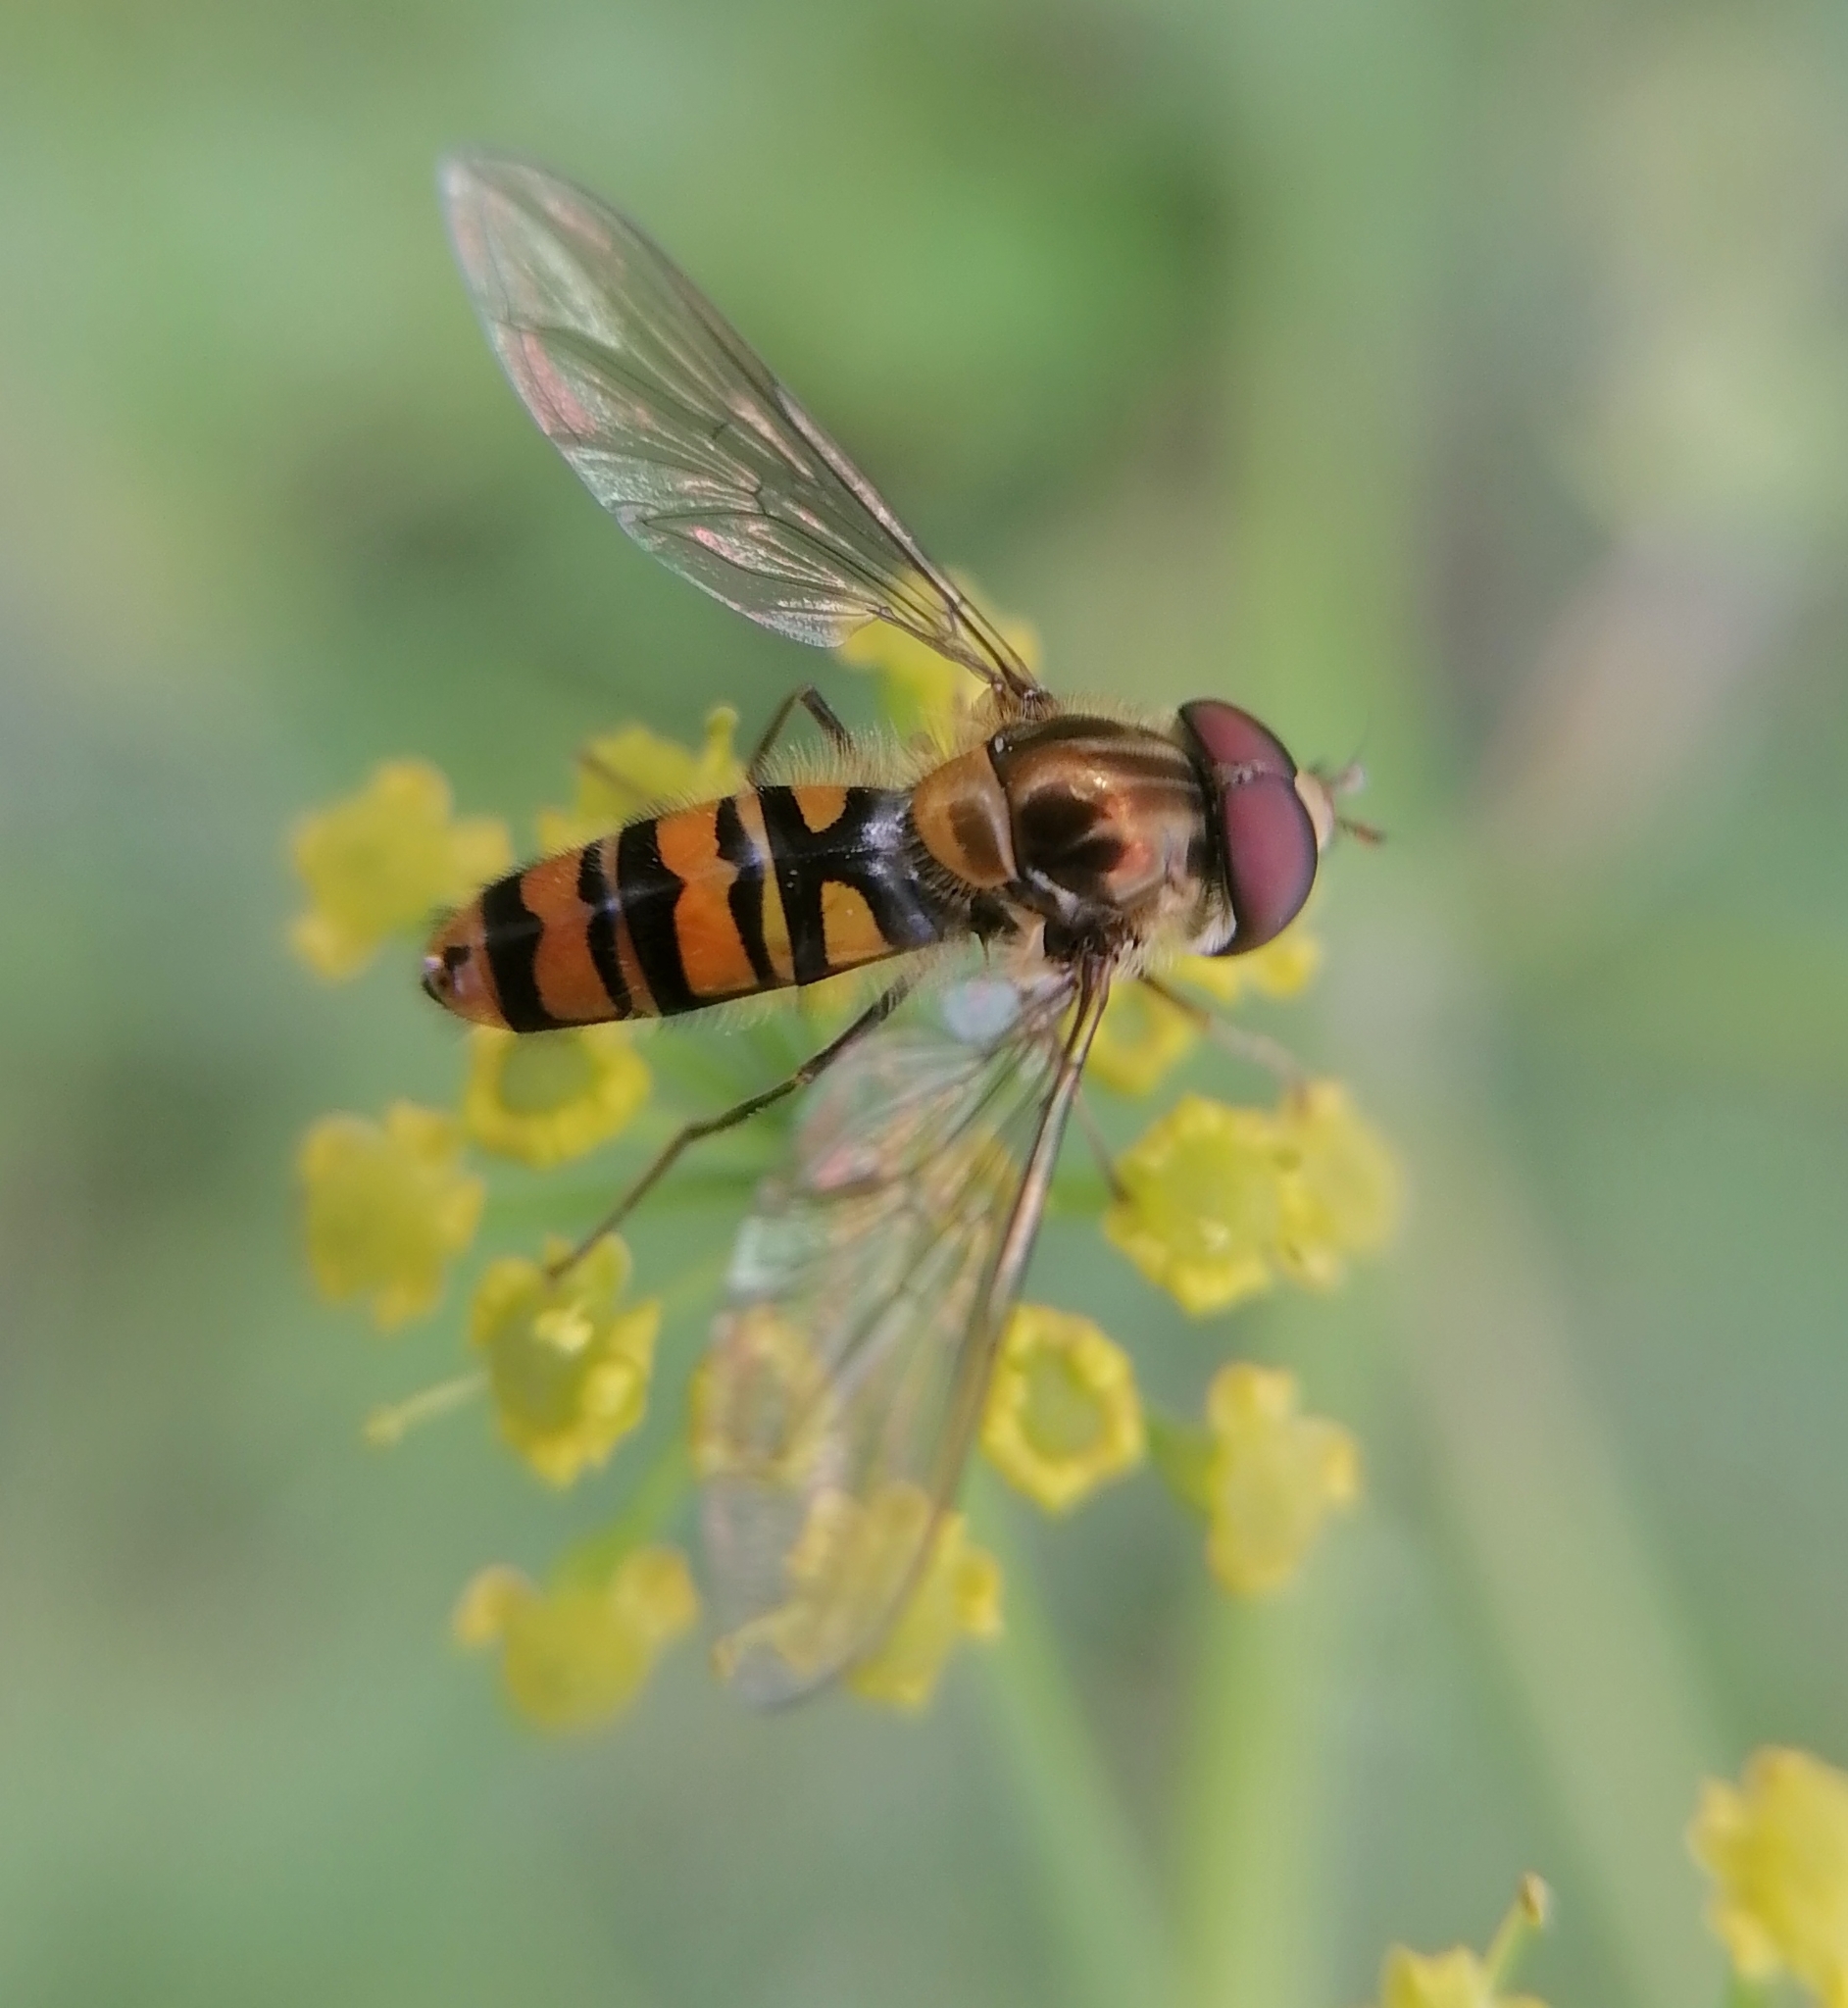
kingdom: Animalia
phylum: Arthropoda
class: Insecta
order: Diptera
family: Syrphidae
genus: Episyrphus
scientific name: Episyrphus balteatus
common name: Marmalade hoverfly
